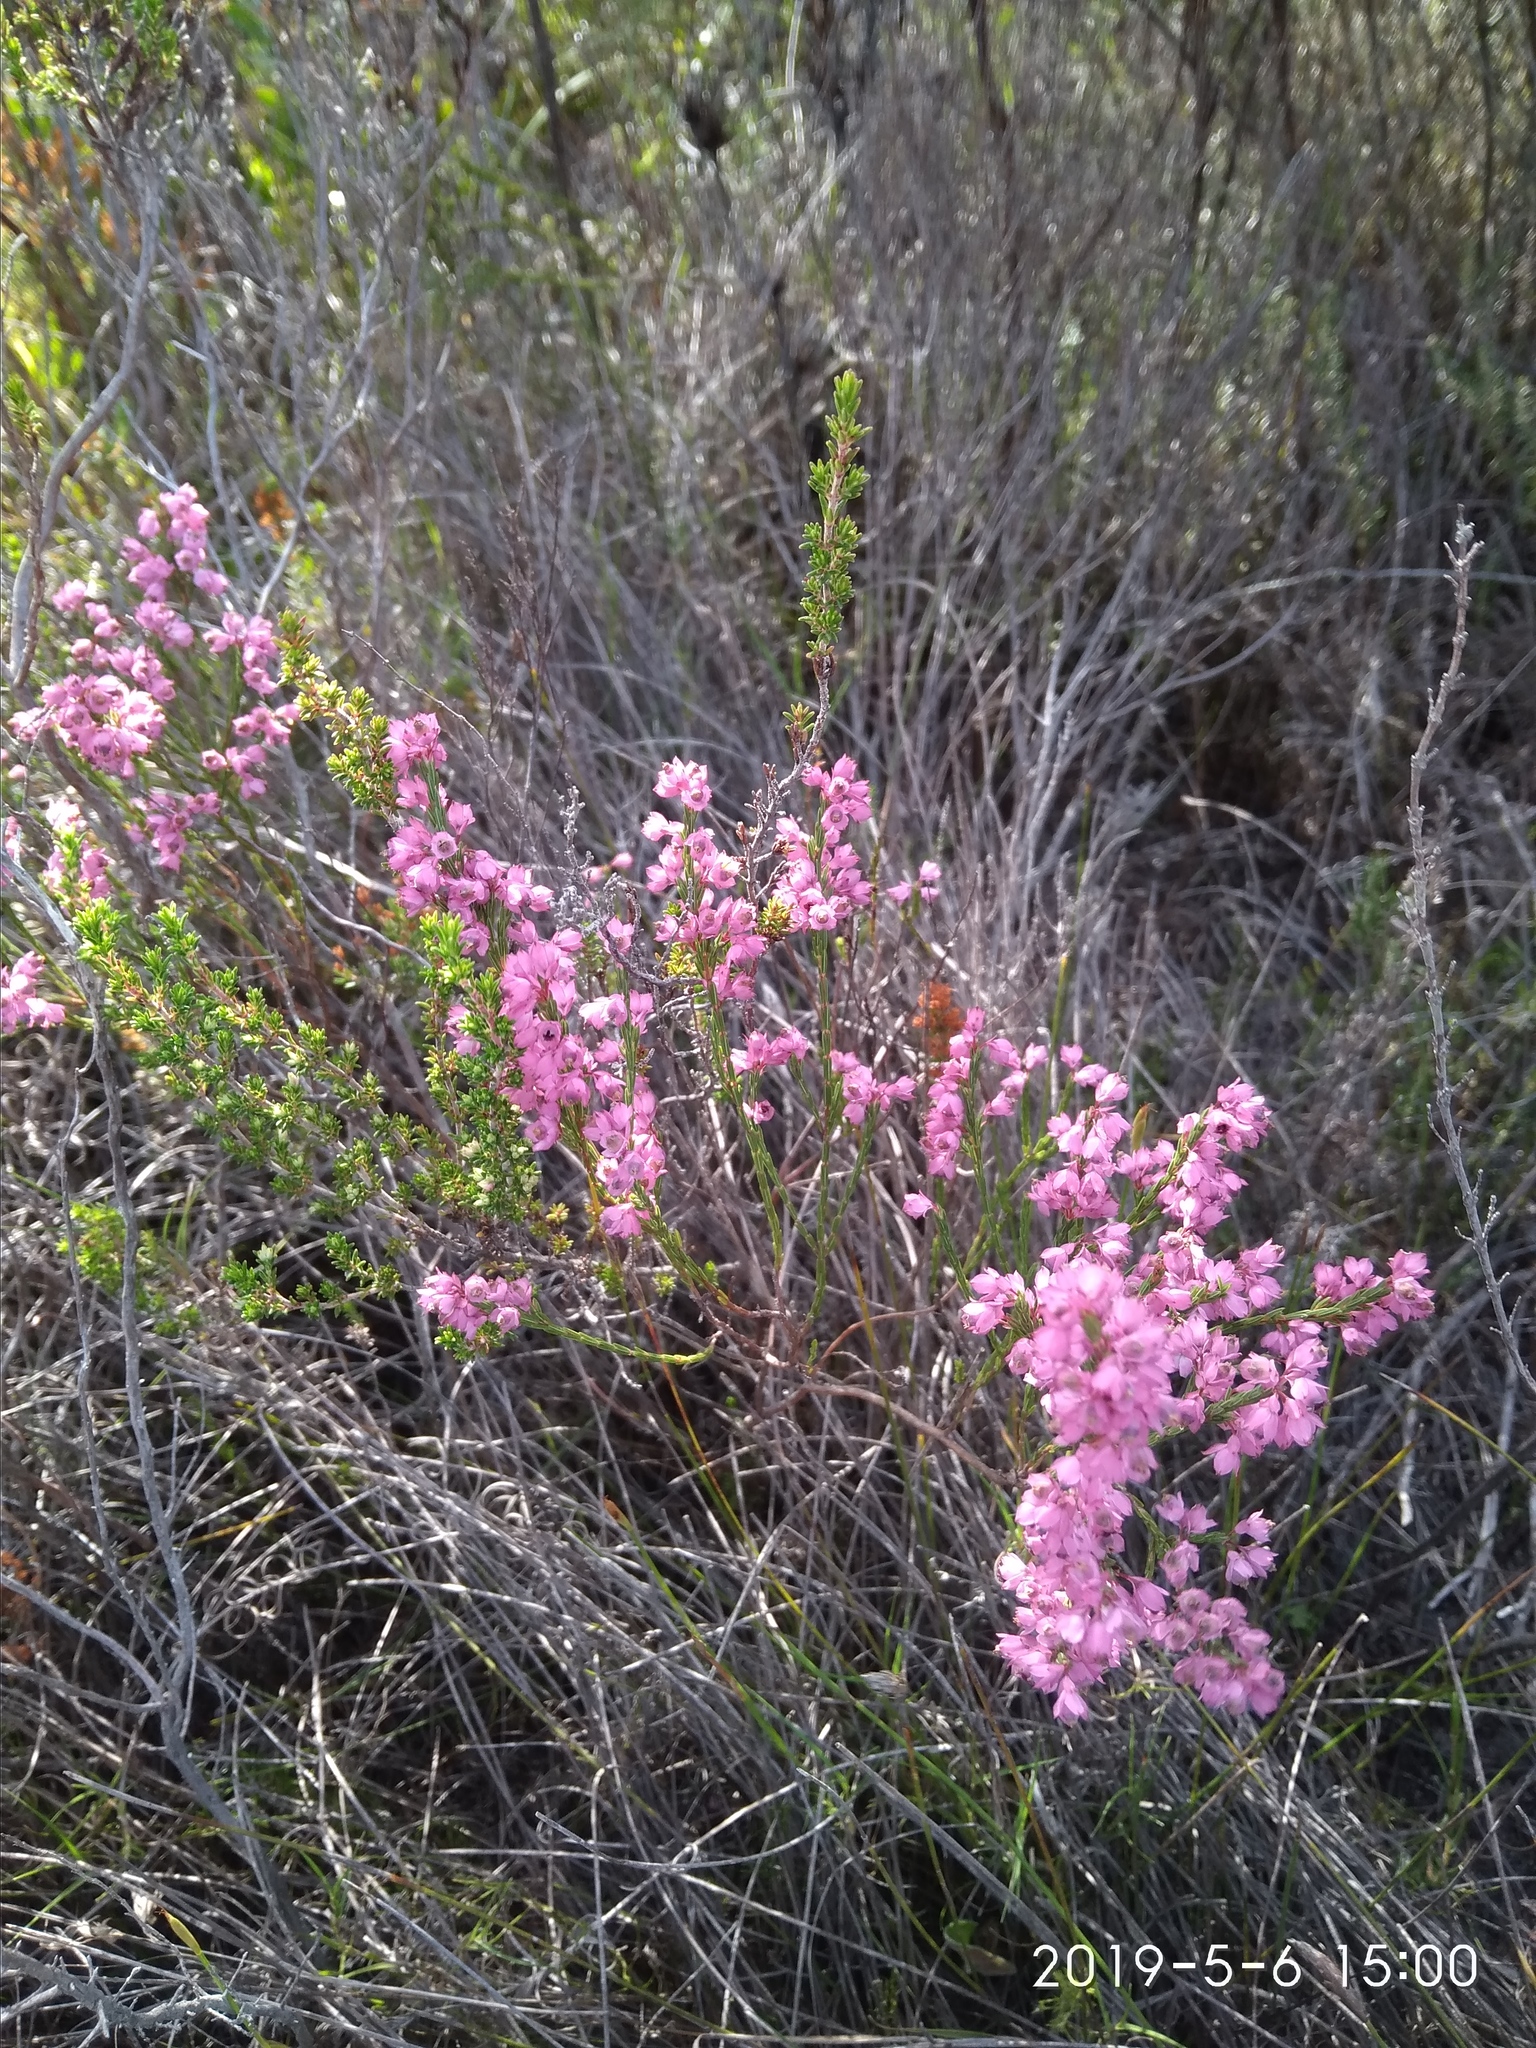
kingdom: Plantae
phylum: Tracheophyta
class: Magnoliopsida
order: Ericales
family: Ericaceae
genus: Erica
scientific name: Erica corifolia
